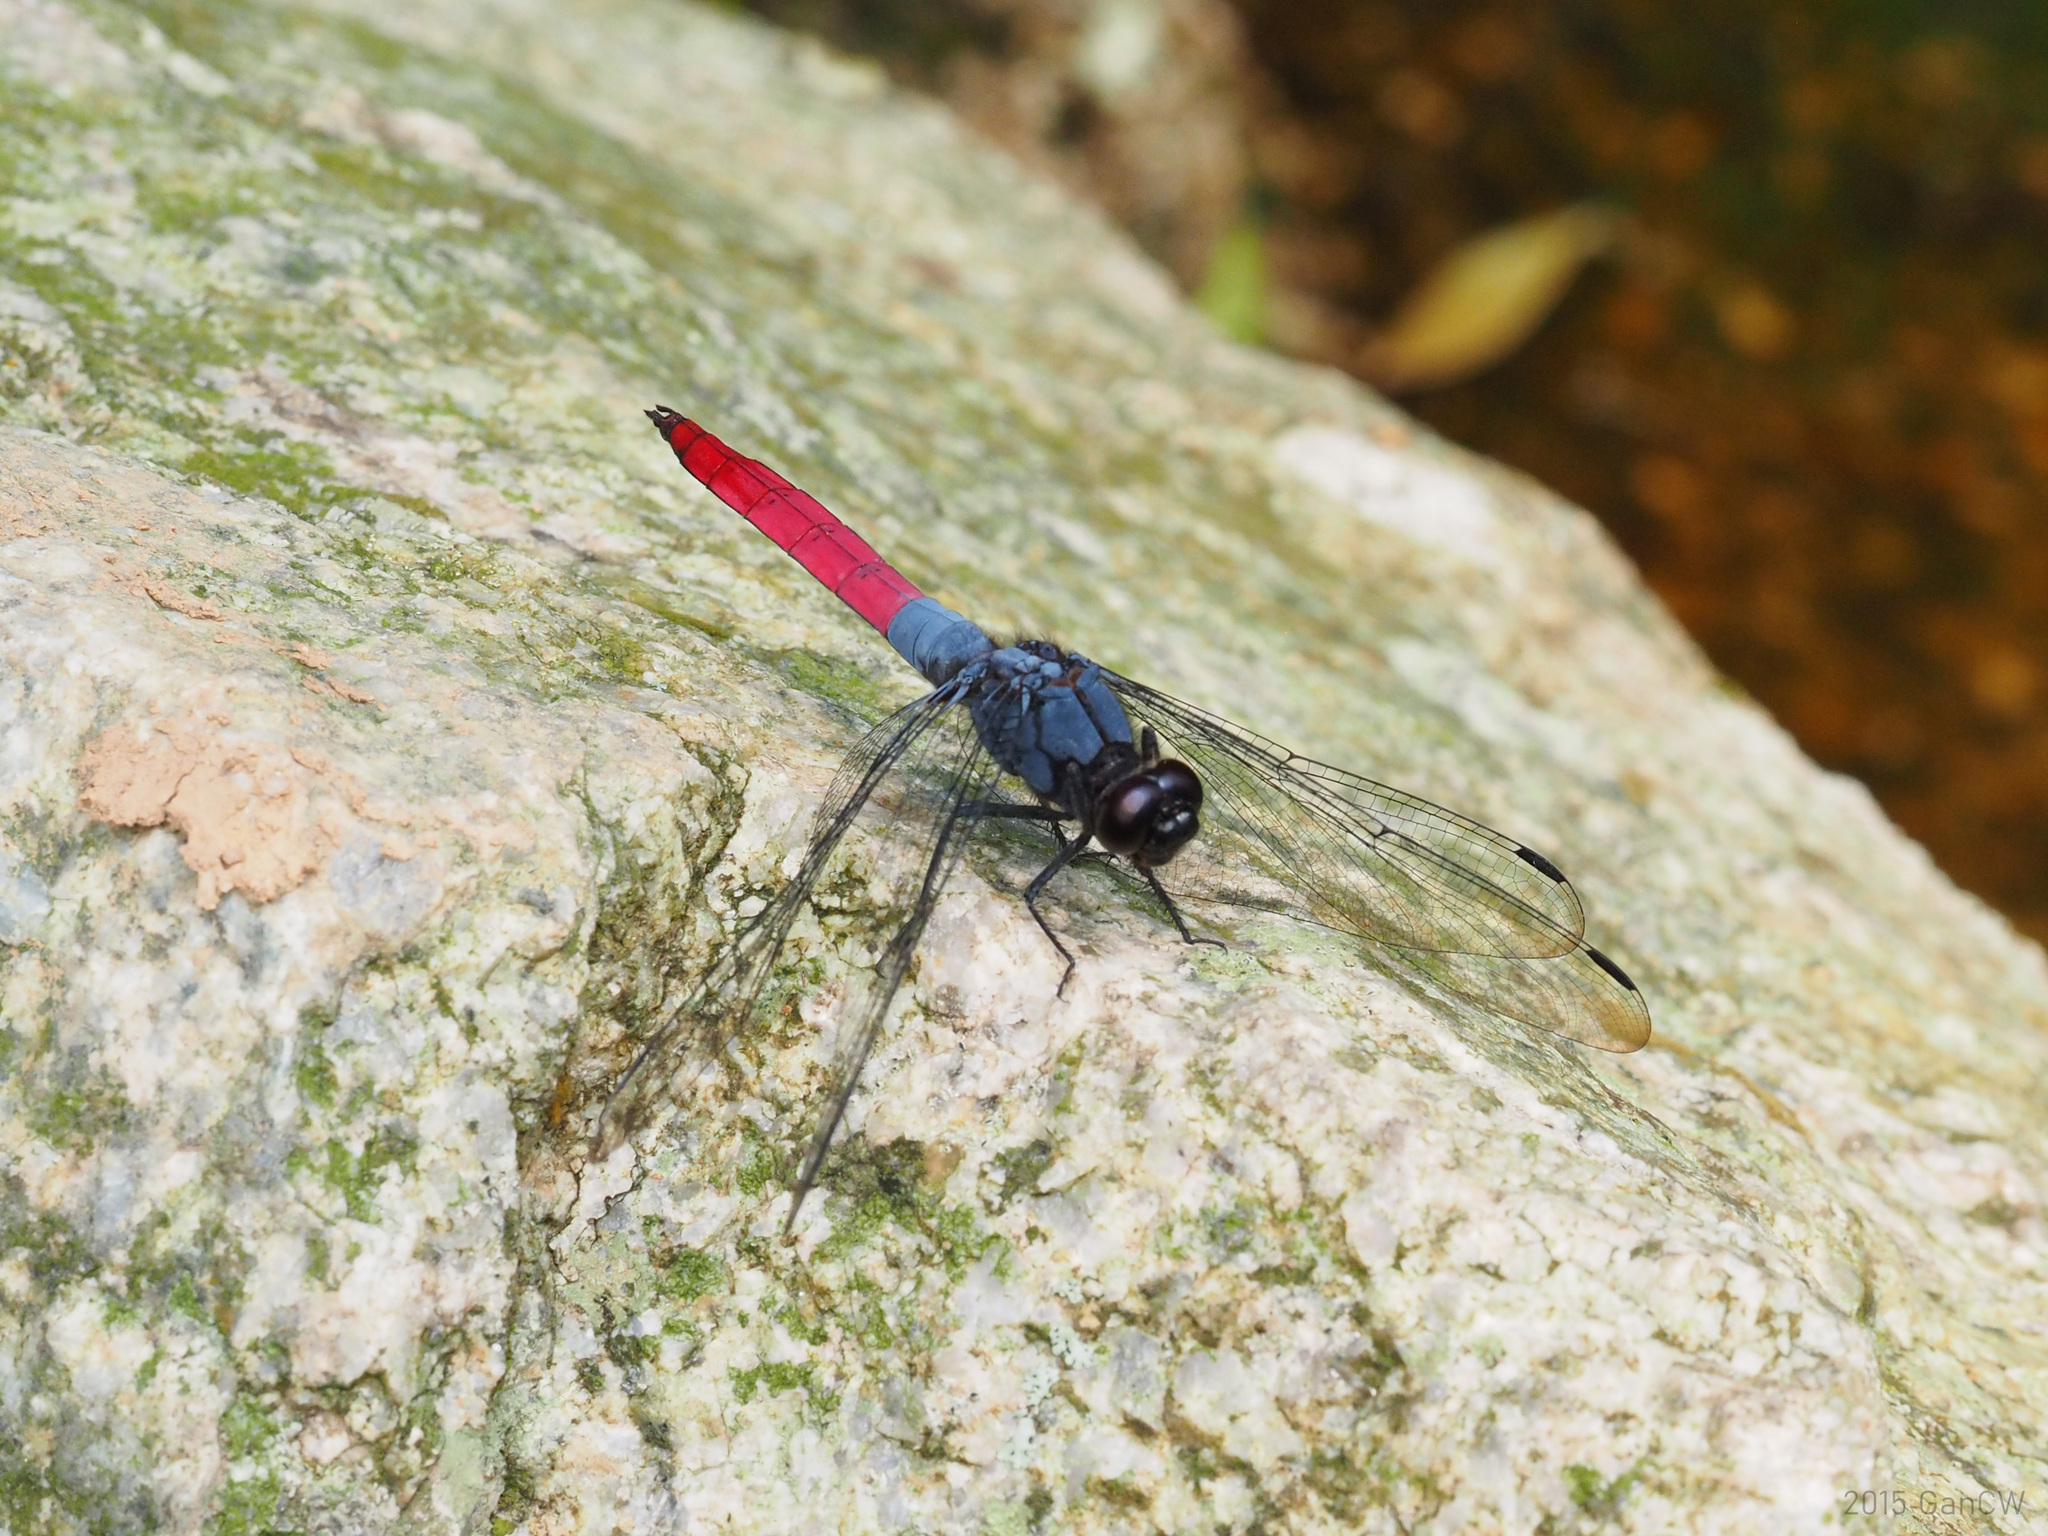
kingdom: Animalia
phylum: Arthropoda
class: Insecta
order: Odonata
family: Libellulidae
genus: Orthetrum
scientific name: Orthetrum schneideri
